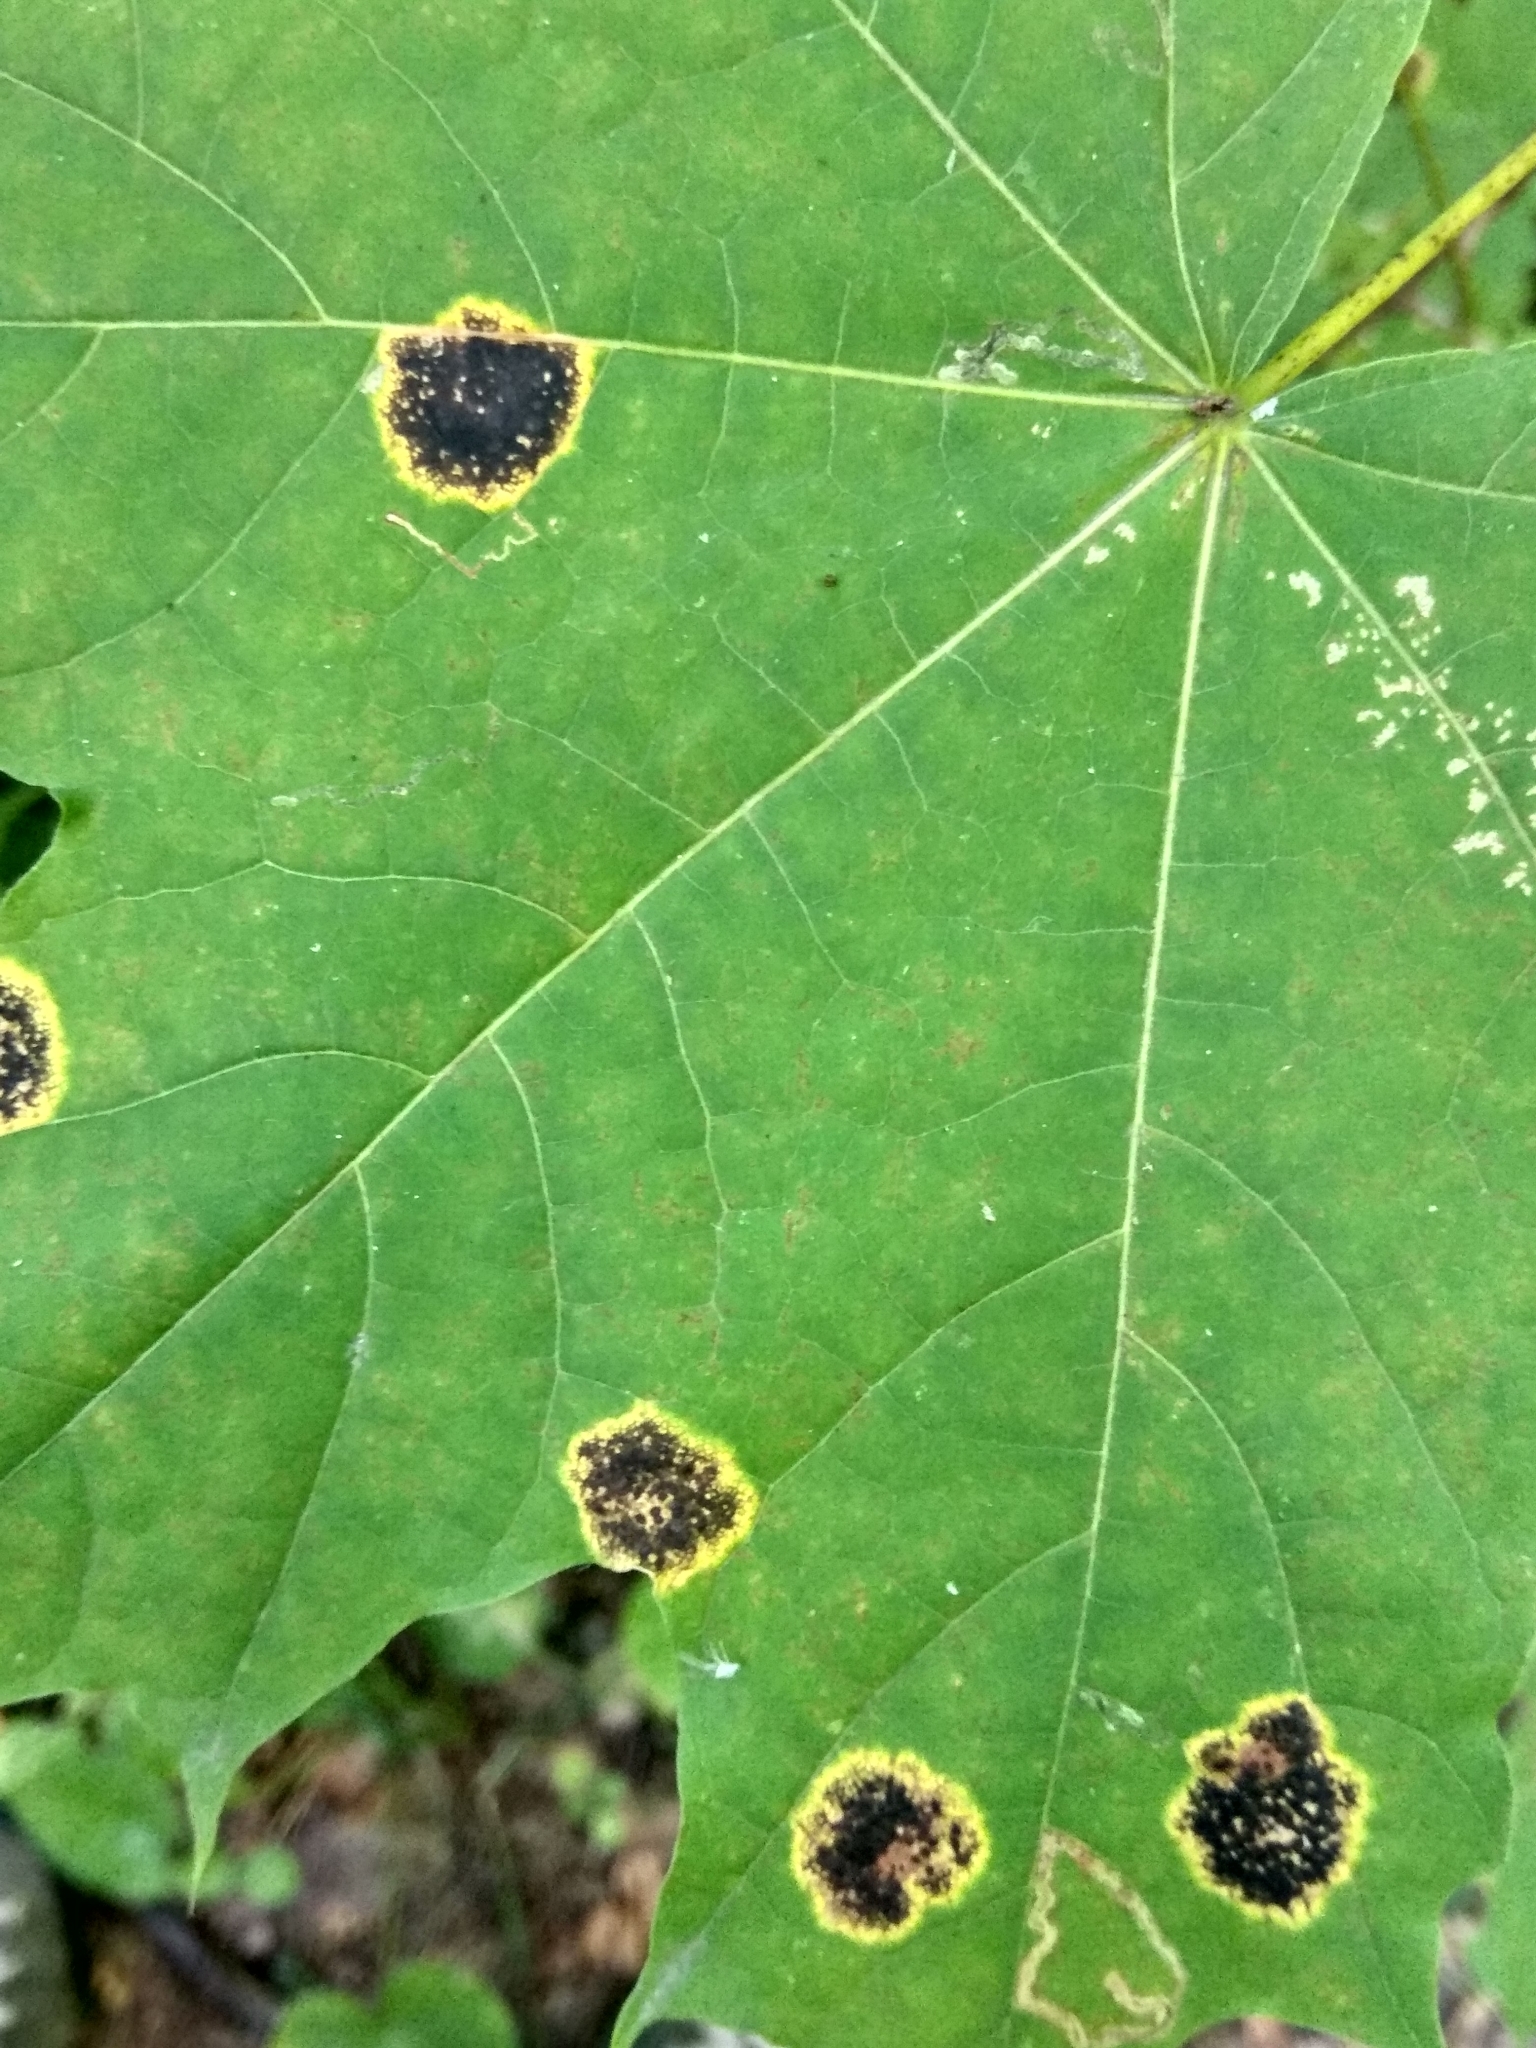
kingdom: Fungi
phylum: Ascomycota
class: Leotiomycetes
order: Rhytismatales
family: Rhytismataceae
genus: Rhytisma
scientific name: Rhytisma acerinum
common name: European tar spot
